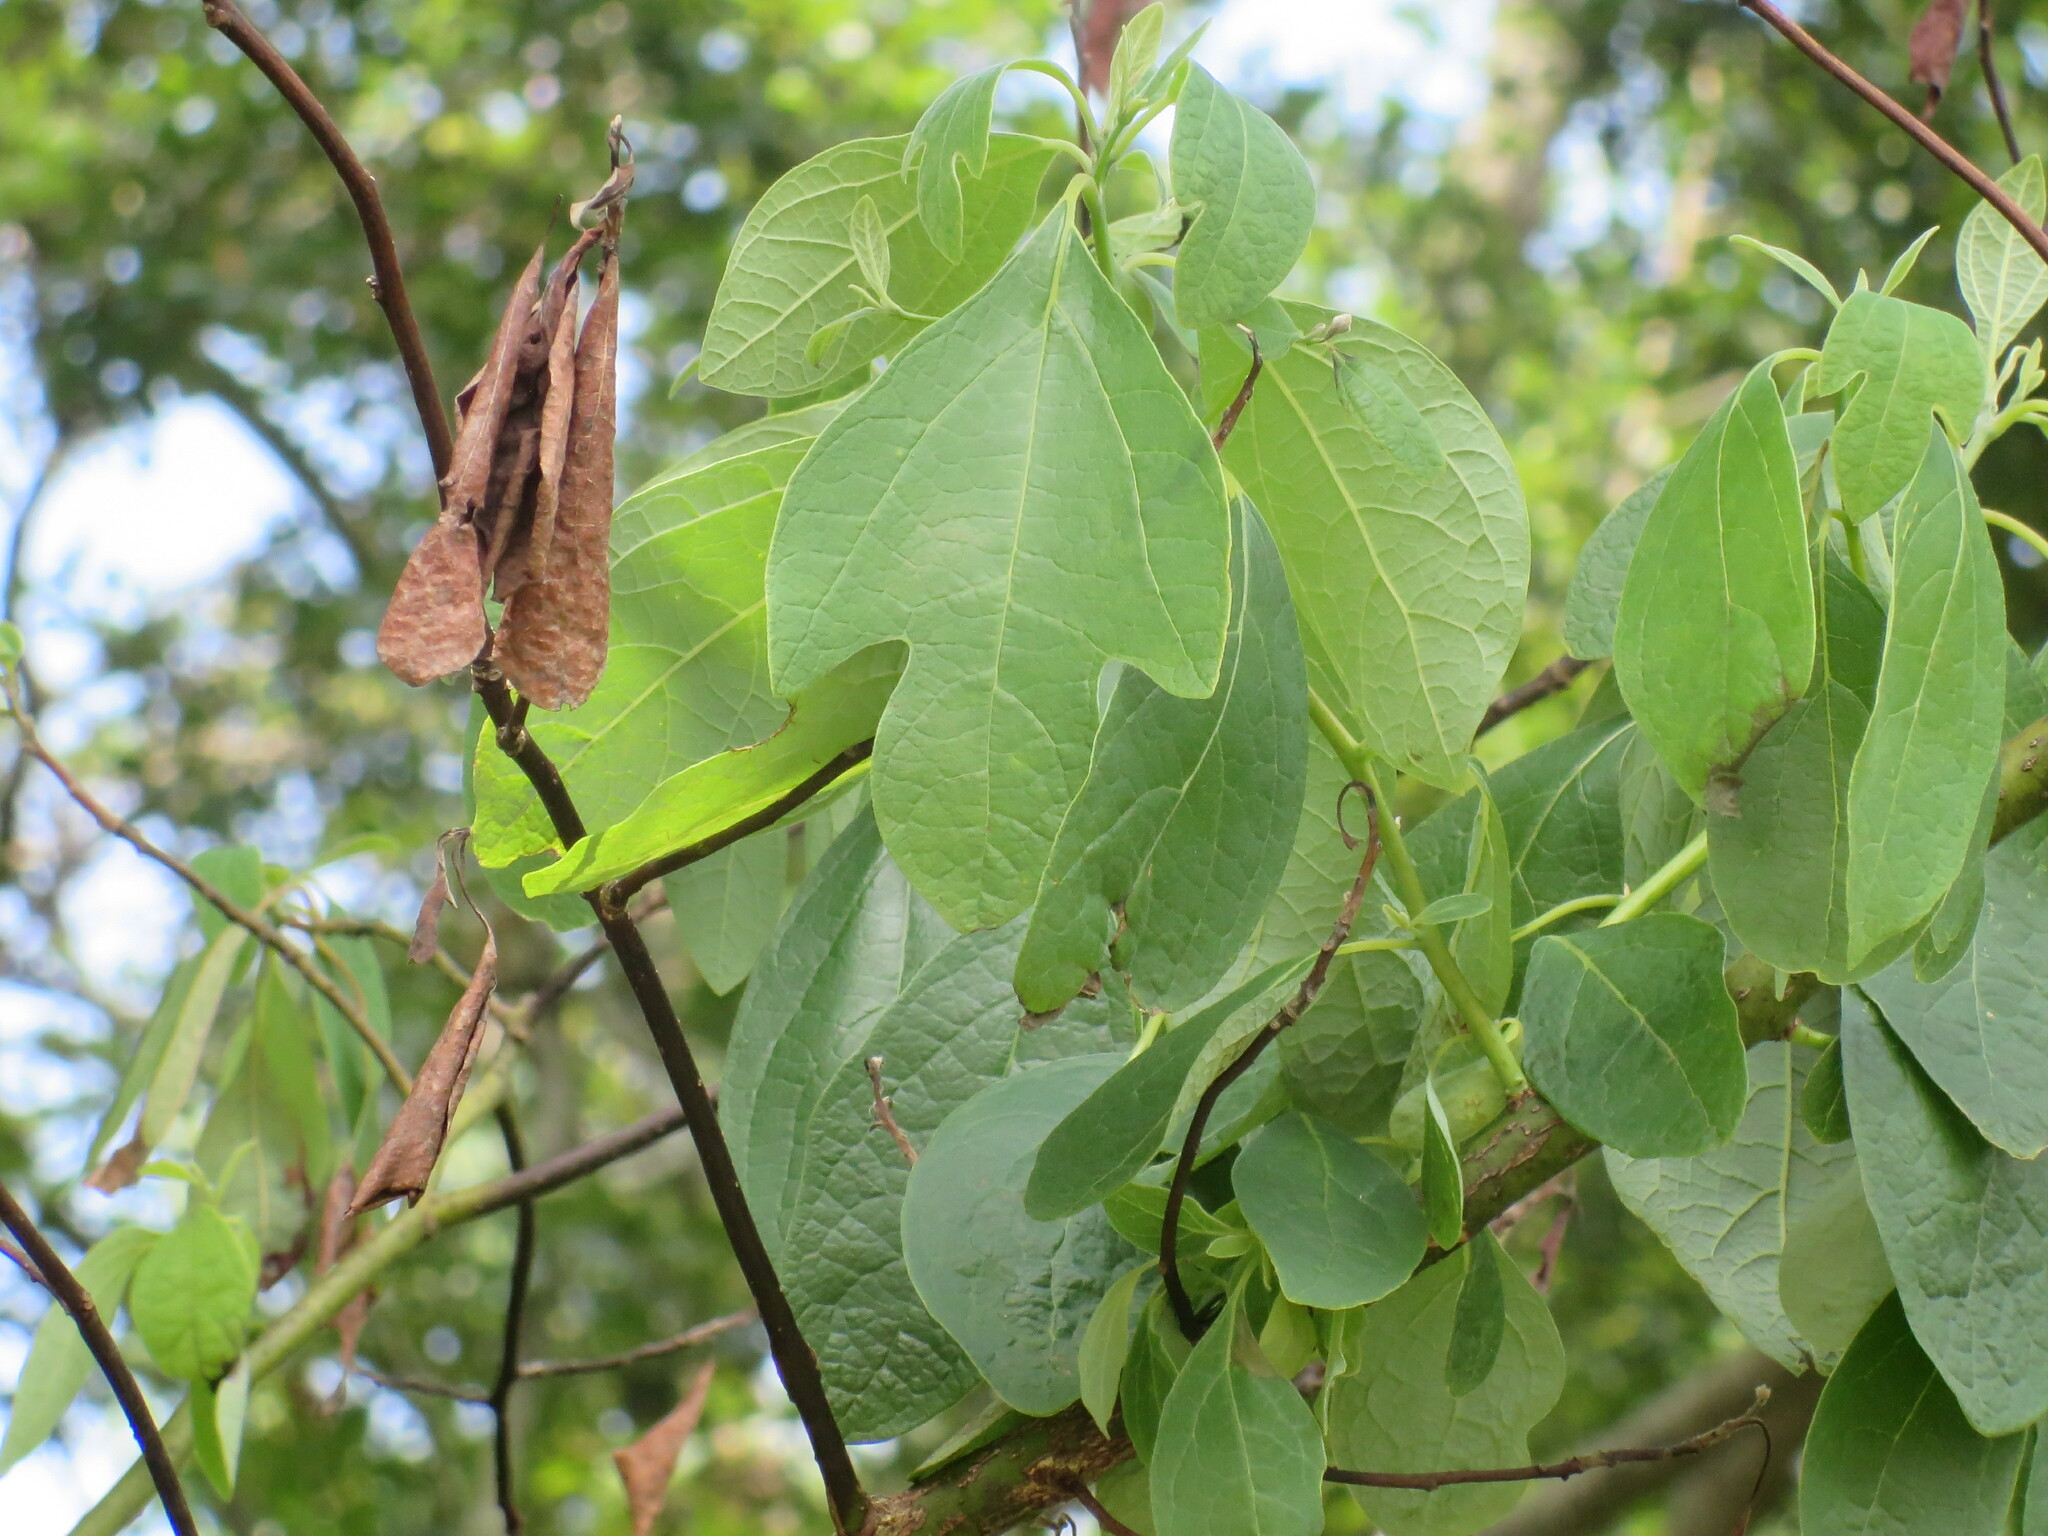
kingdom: Plantae
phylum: Tracheophyta
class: Magnoliopsida
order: Laurales
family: Lauraceae
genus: Sassafras
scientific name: Sassafras albidum
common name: Sassafras
